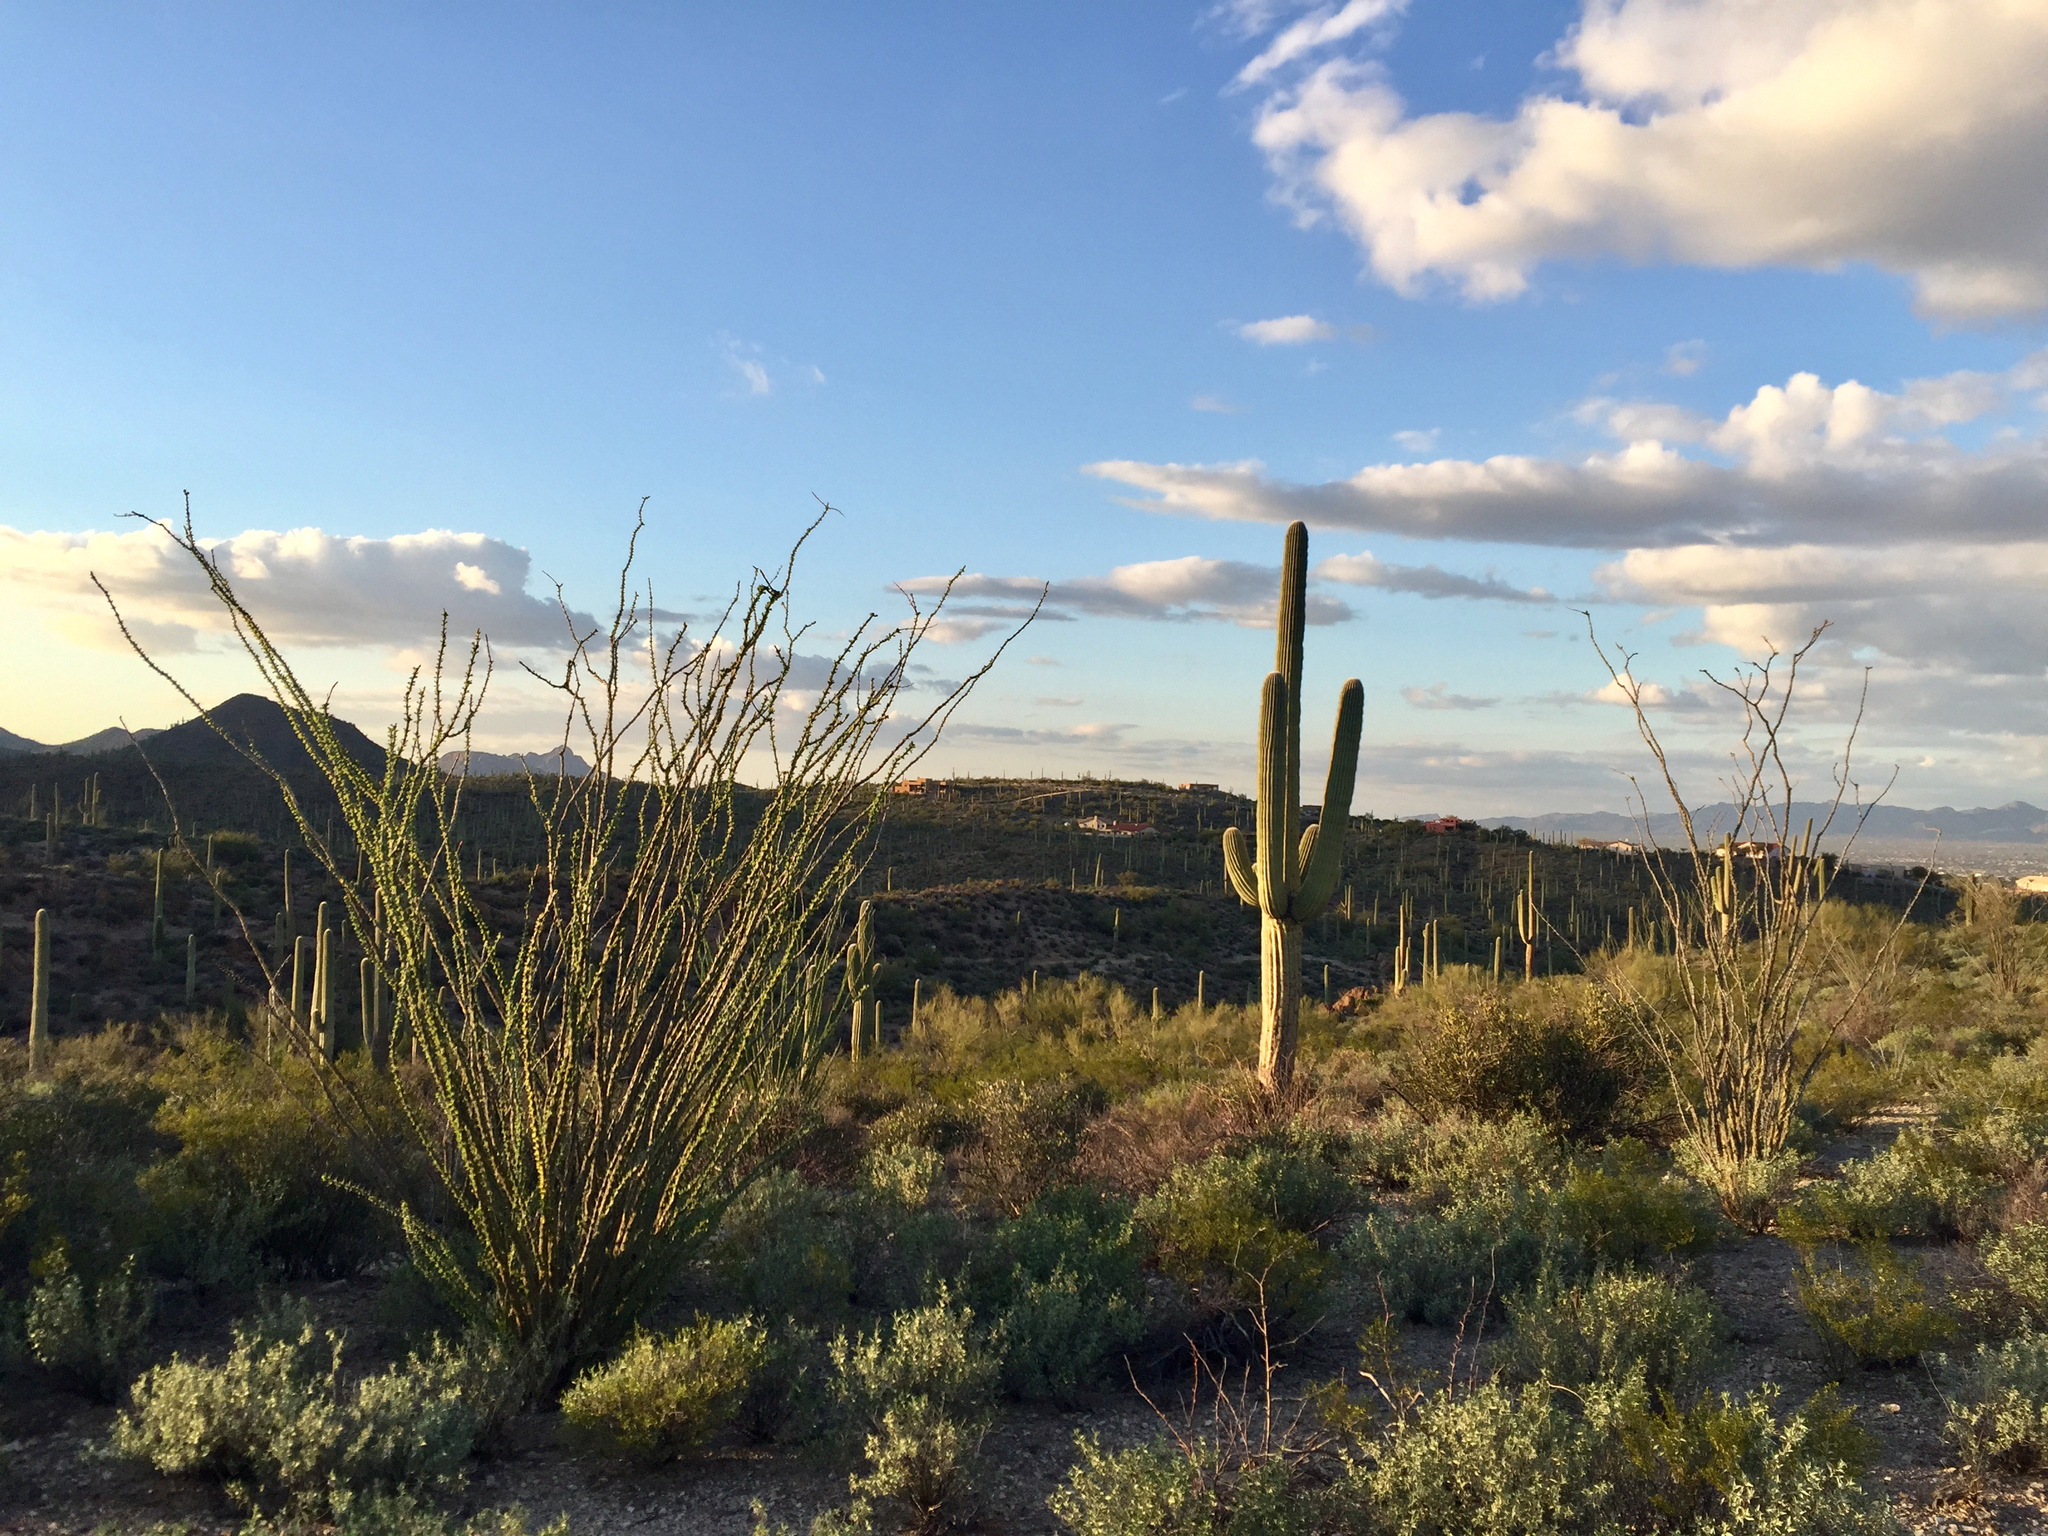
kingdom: Plantae
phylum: Tracheophyta
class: Magnoliopsida
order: Ericales
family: Fouquieriaceae
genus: Fouquieria
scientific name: Fouquieria splendens
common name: Vine-cactus
